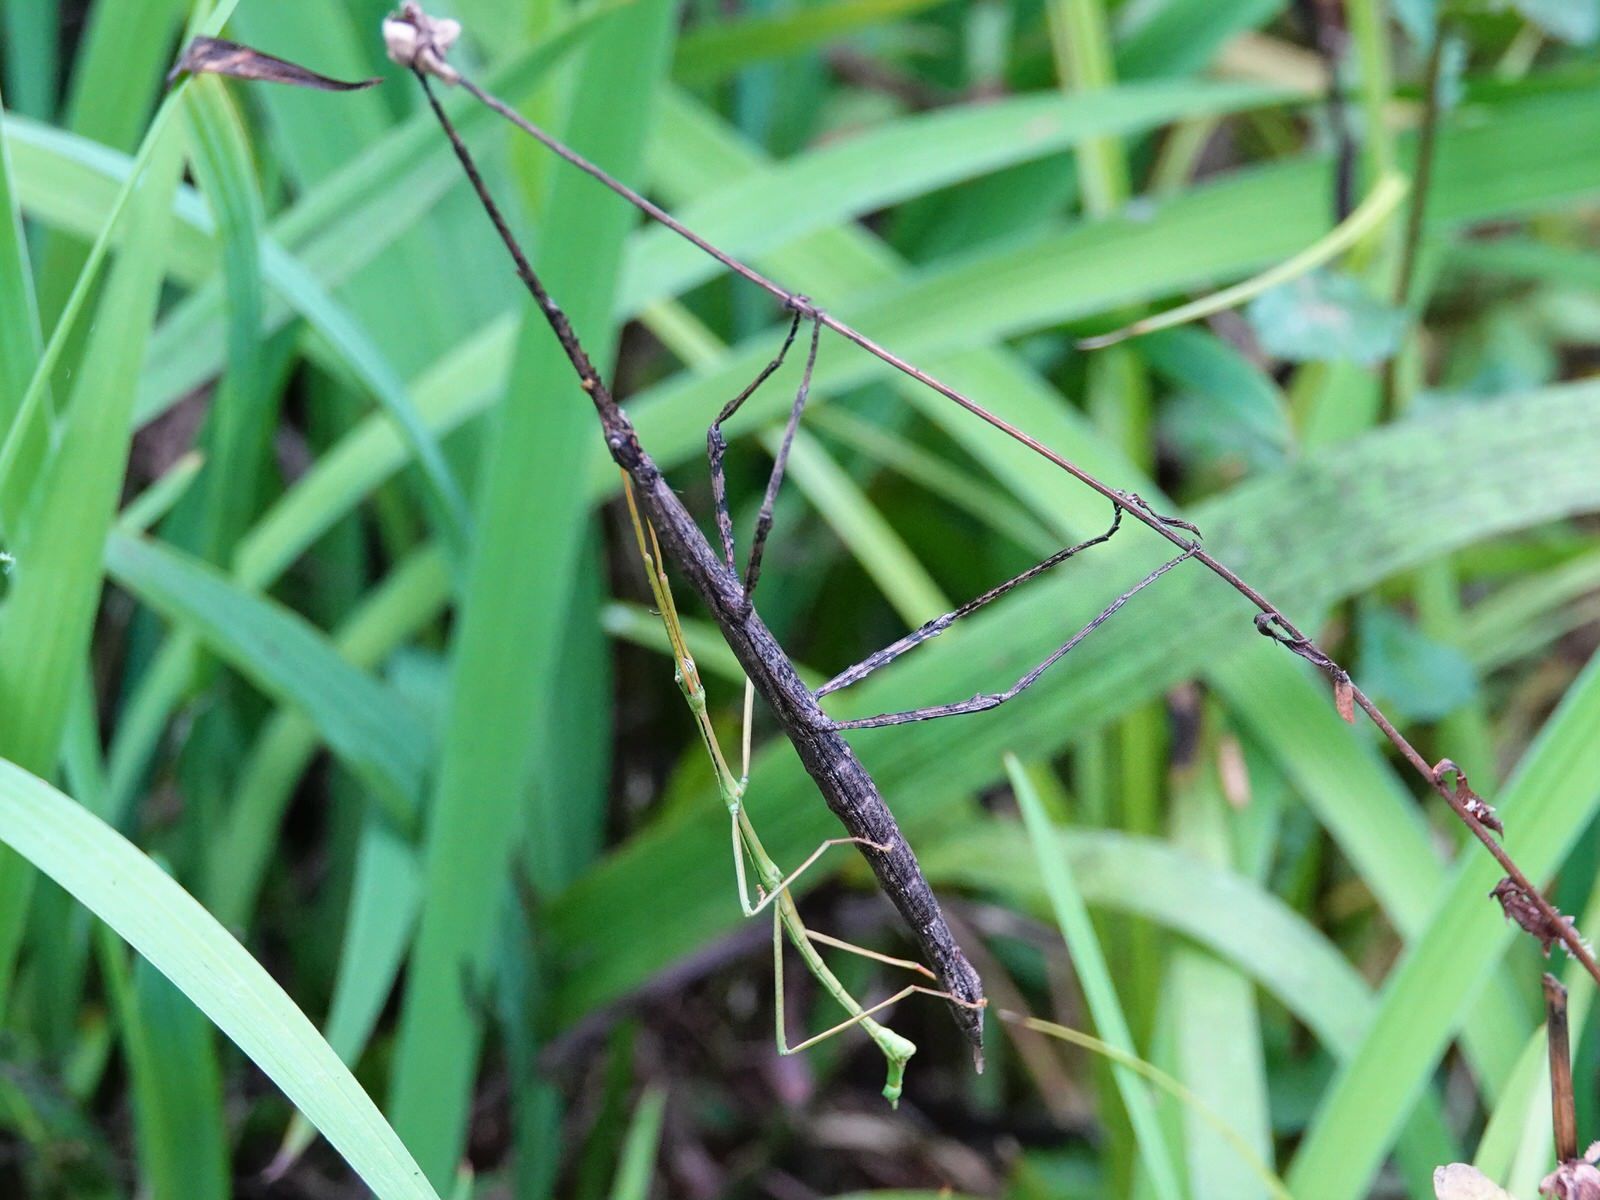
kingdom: Animalia
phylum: Arthropoda
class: Insecta
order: Phasmida
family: Phasmatidae
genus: Clitarchus
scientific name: Clitarchus hookeri
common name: Smooth stick insect
